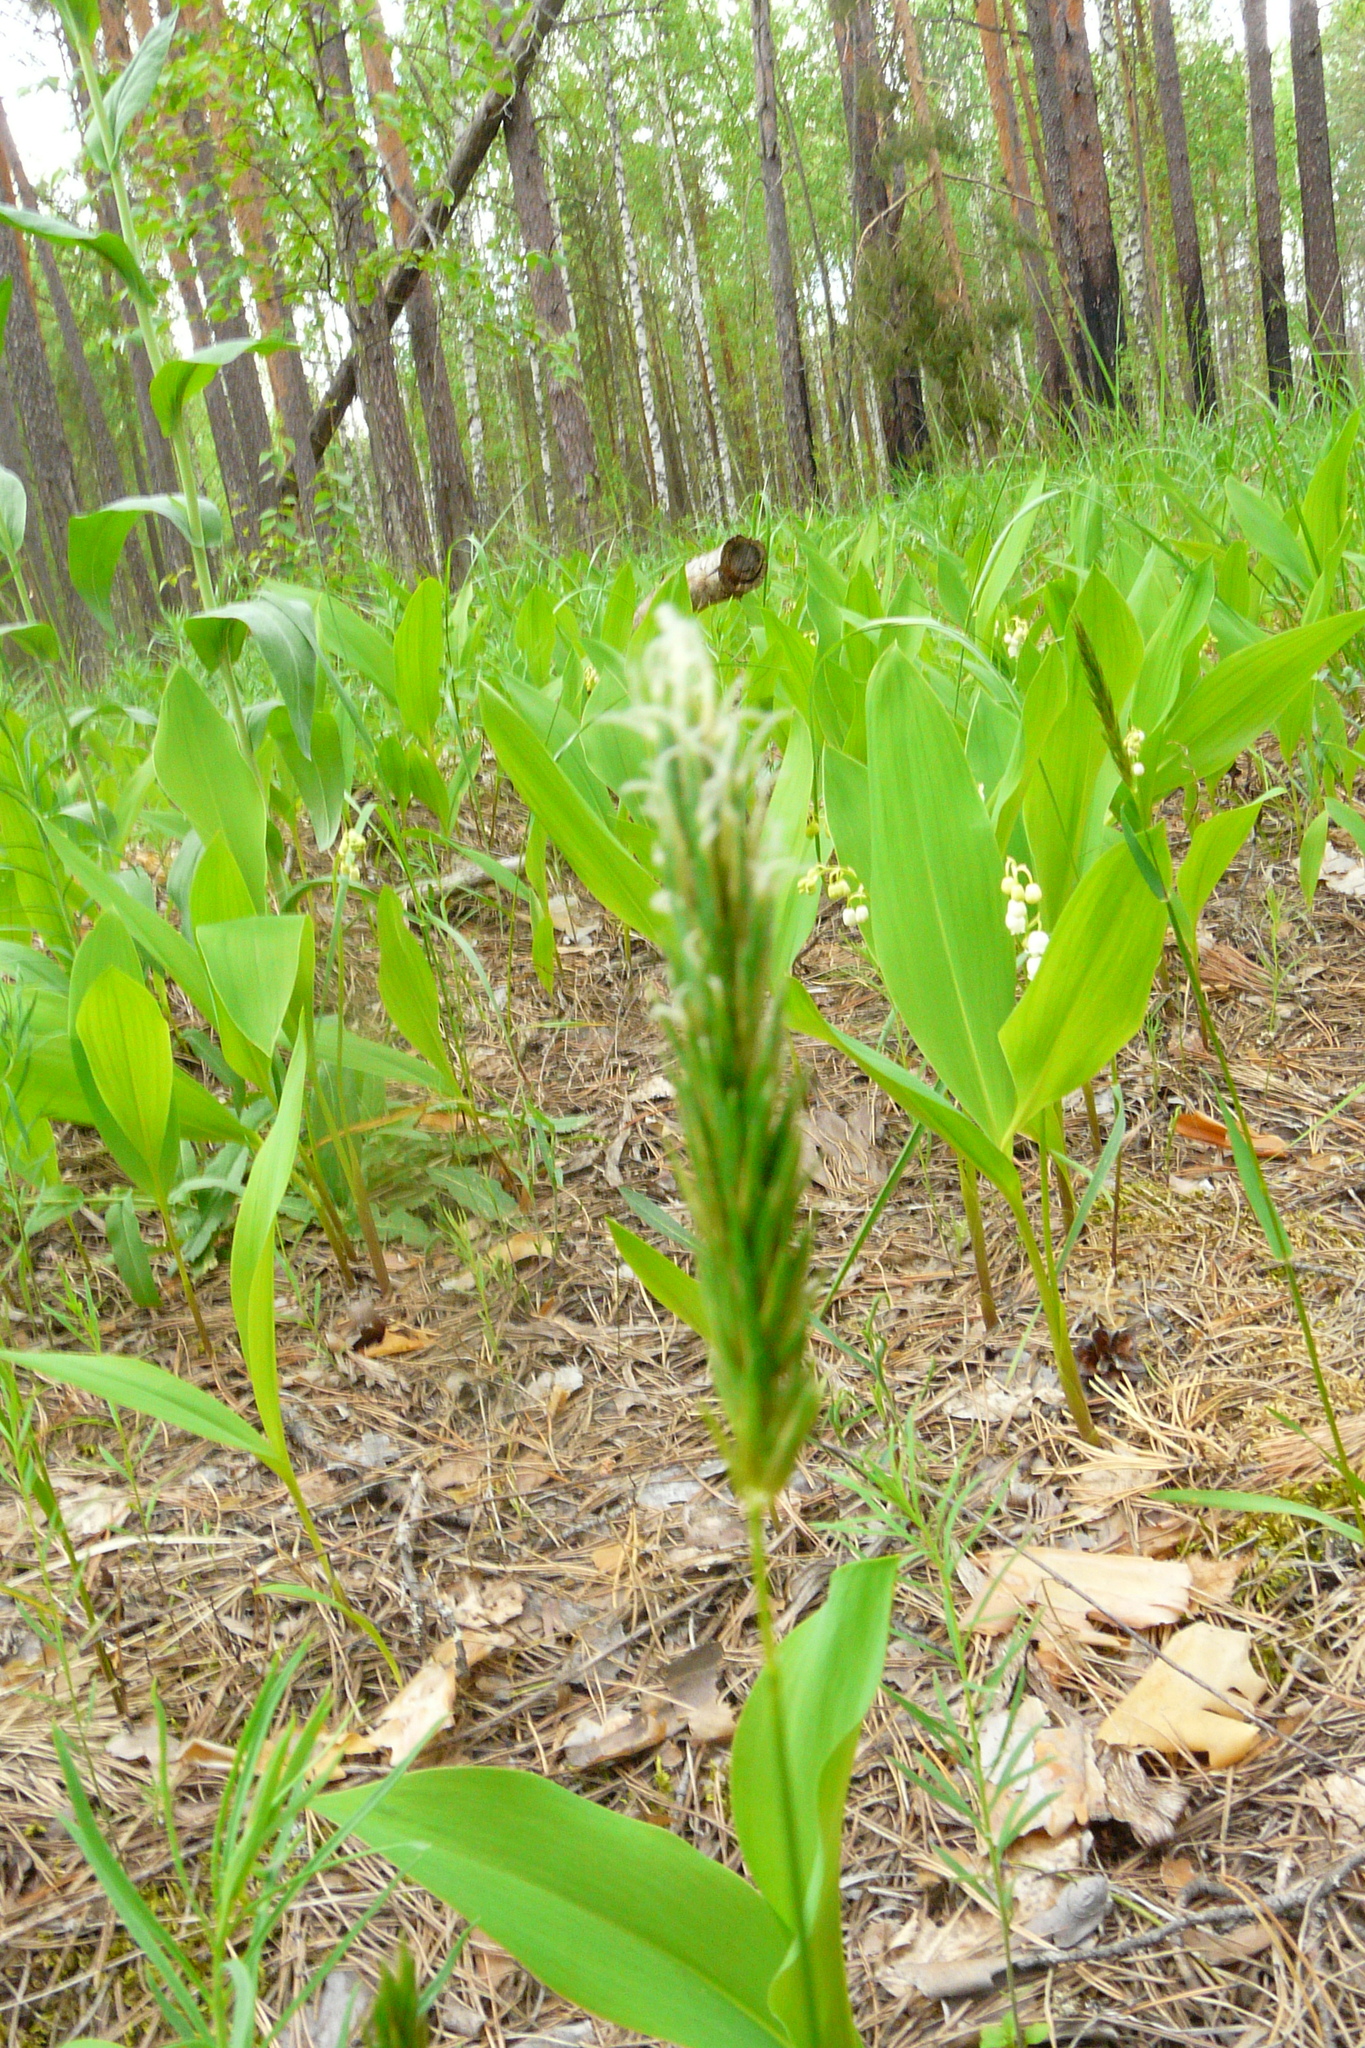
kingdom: Plantae
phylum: Tracheophyta
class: Liliopsida
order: Poales
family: Poaceae
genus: Anthoxanthum
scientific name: Anthoxanthum odoratum
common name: Sweet vernalgrass
